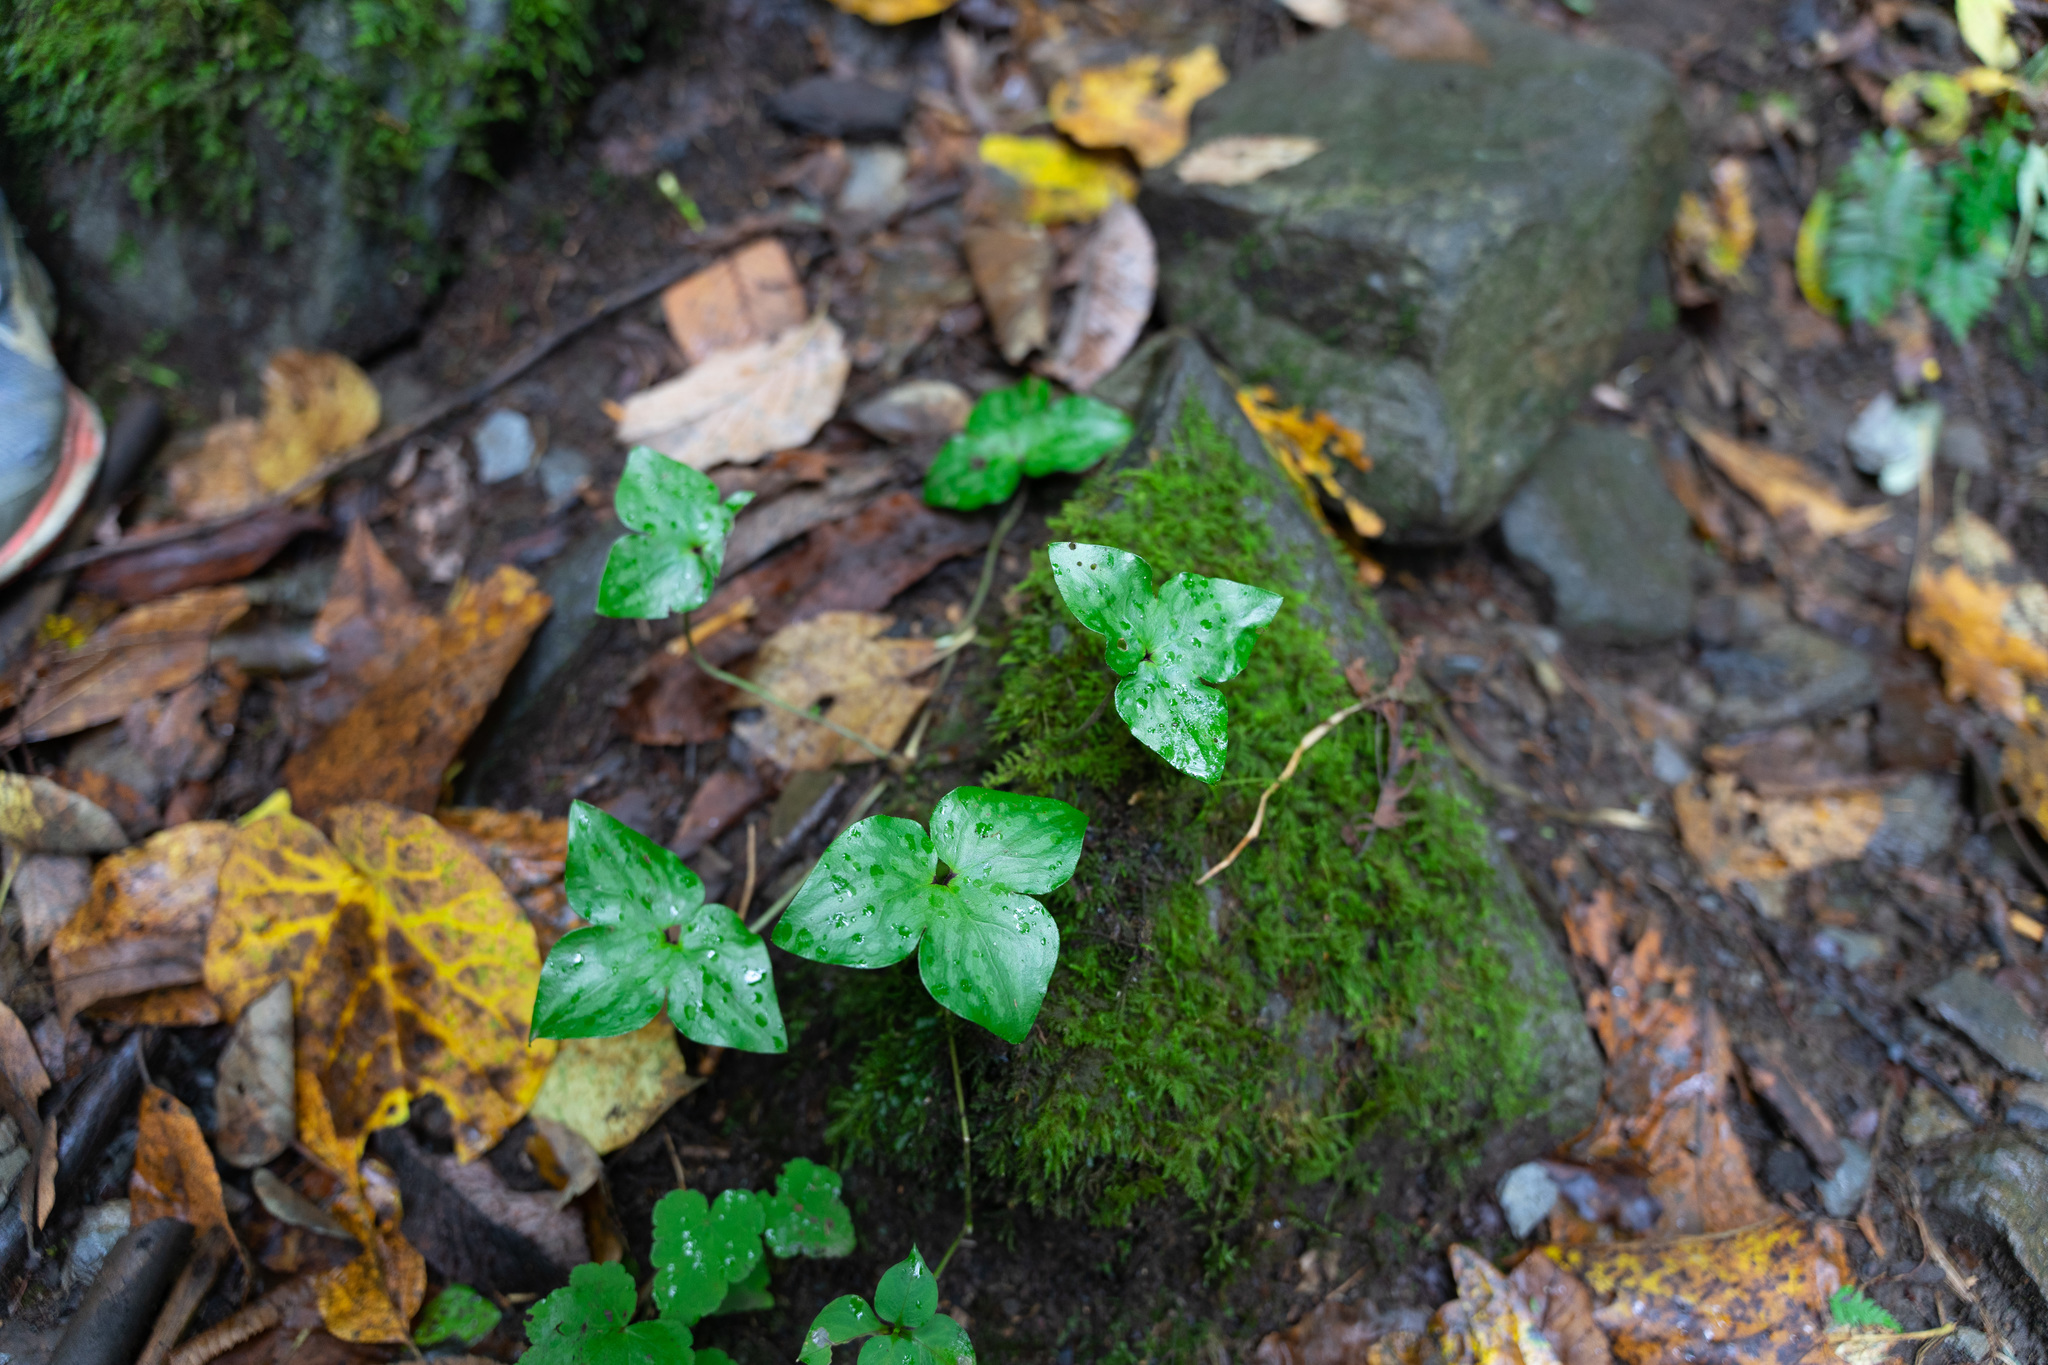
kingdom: Plantae
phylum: Tracheophyta
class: Magnoliopsida
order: Ranunculales
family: Ranunculaceae
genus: Hepatica
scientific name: Hepatica acutiloba
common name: Sharp-lobed hepatica
